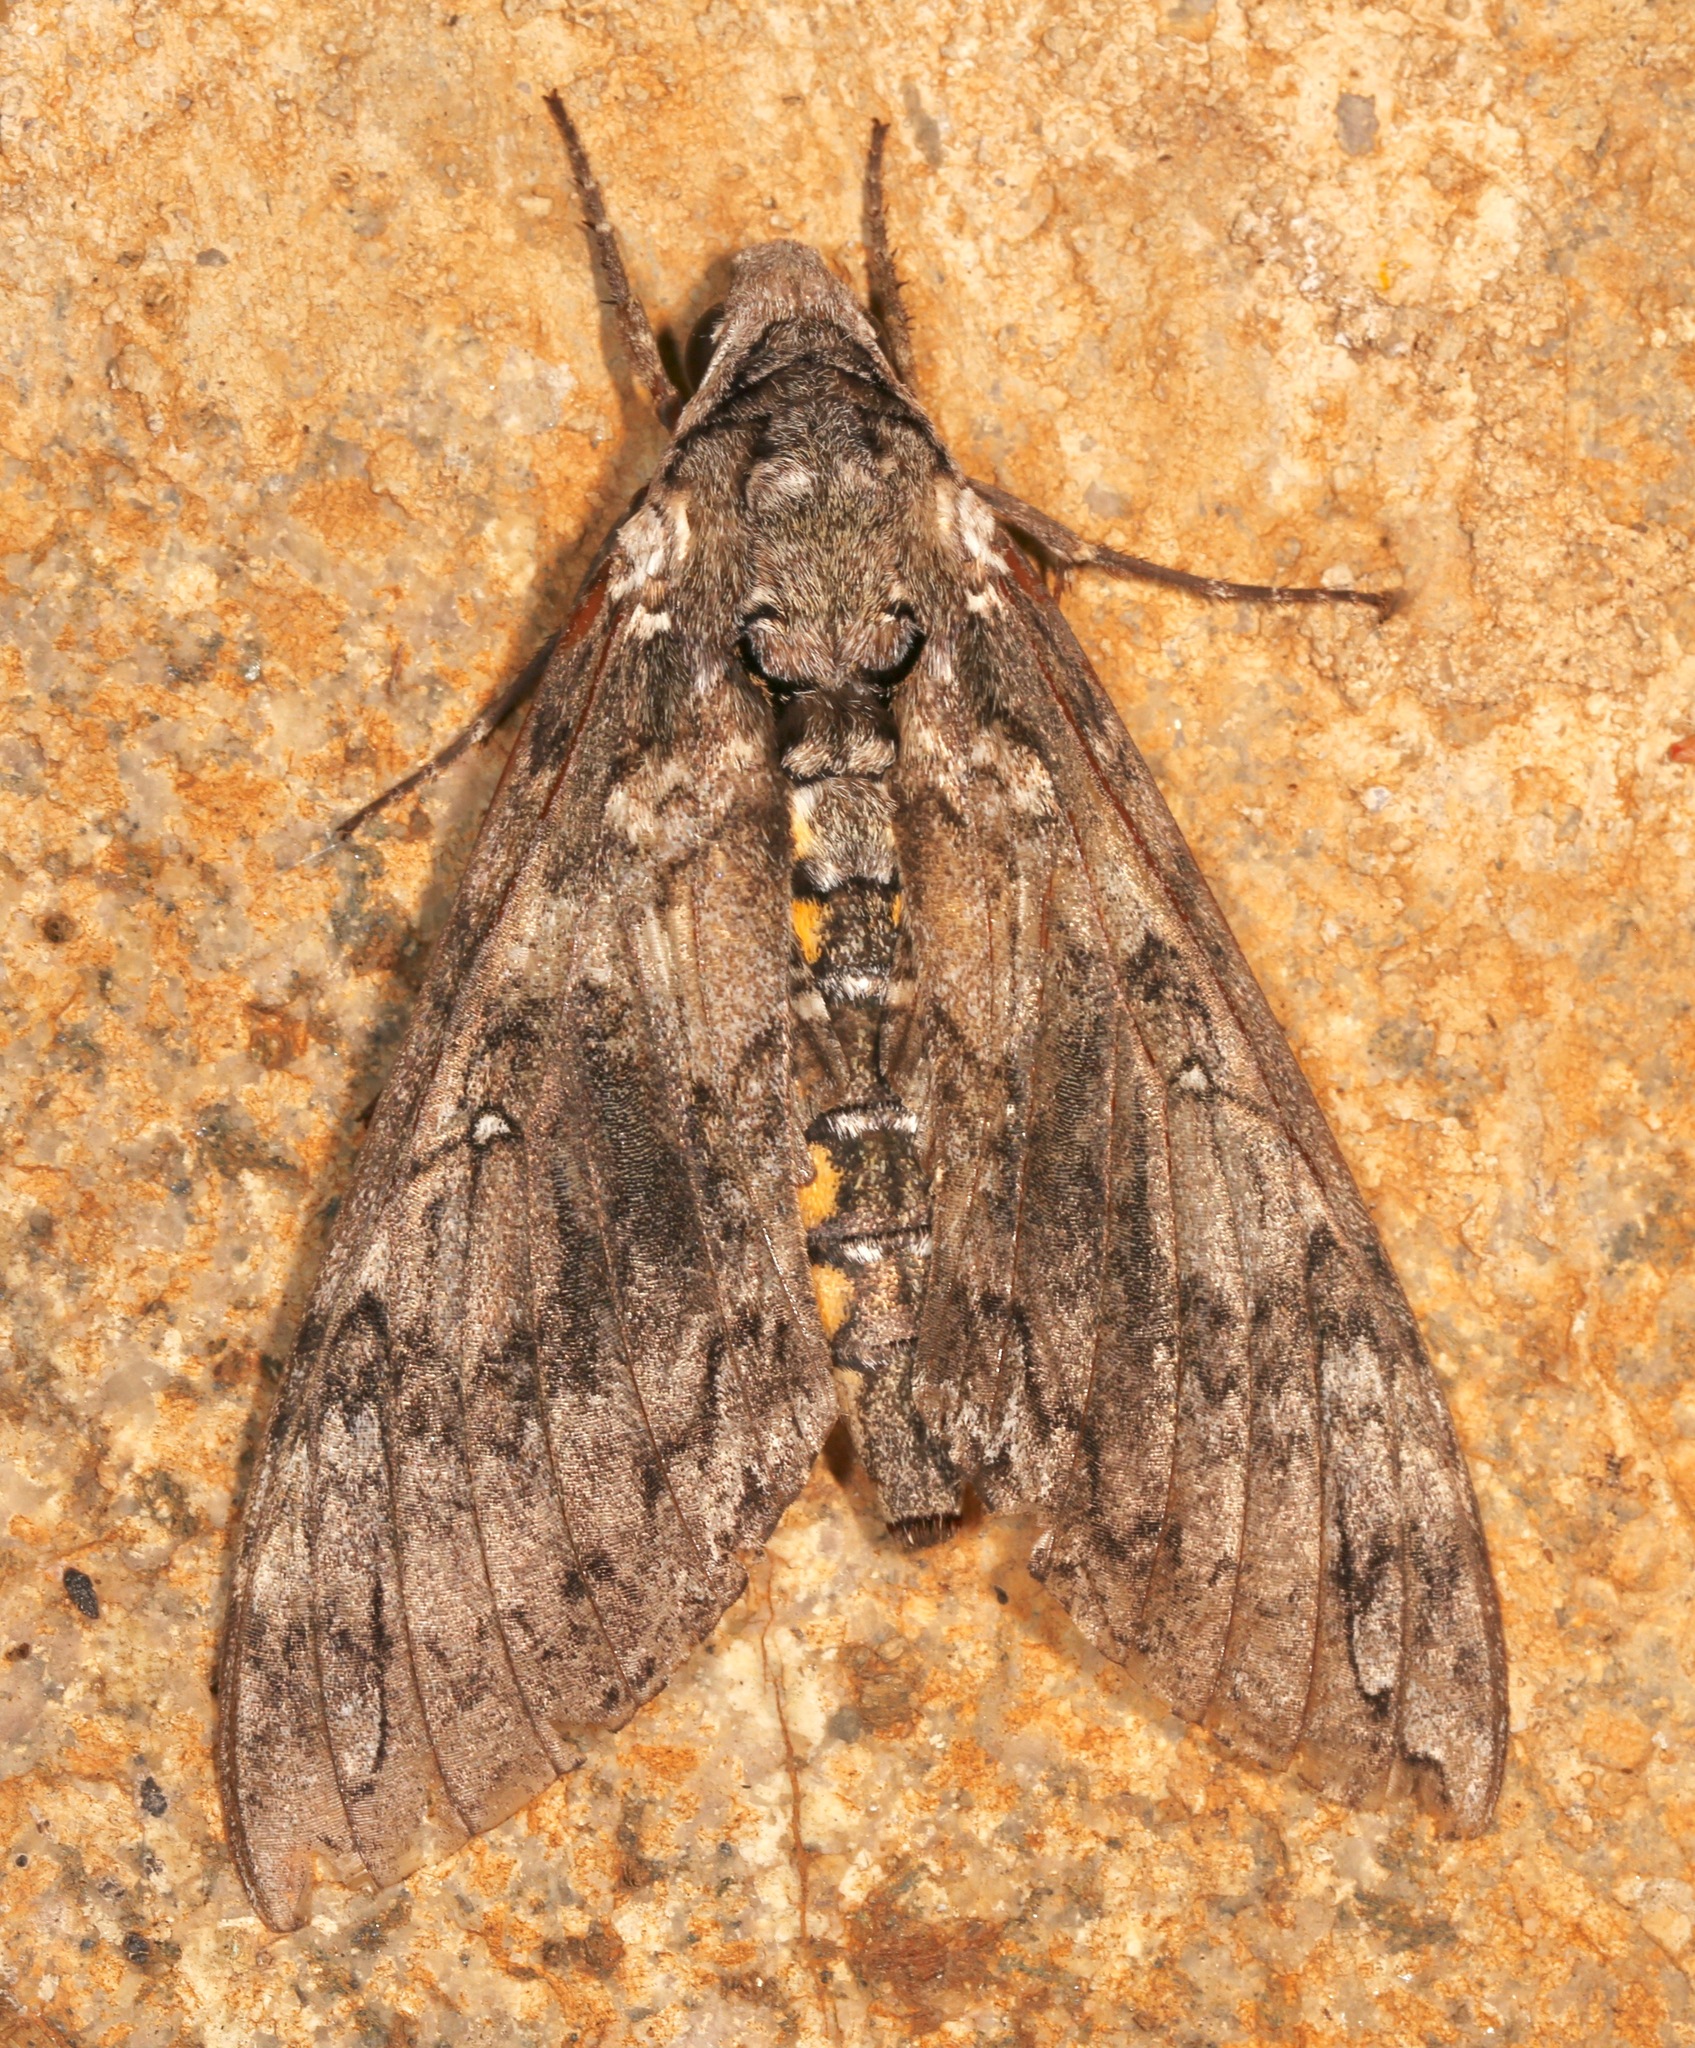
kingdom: Animalia
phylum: Arthropoda
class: Insecta
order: Lepidoptera
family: Sphingidae
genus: Manduca
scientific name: Manduca sexta
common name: Carolina sphinx
